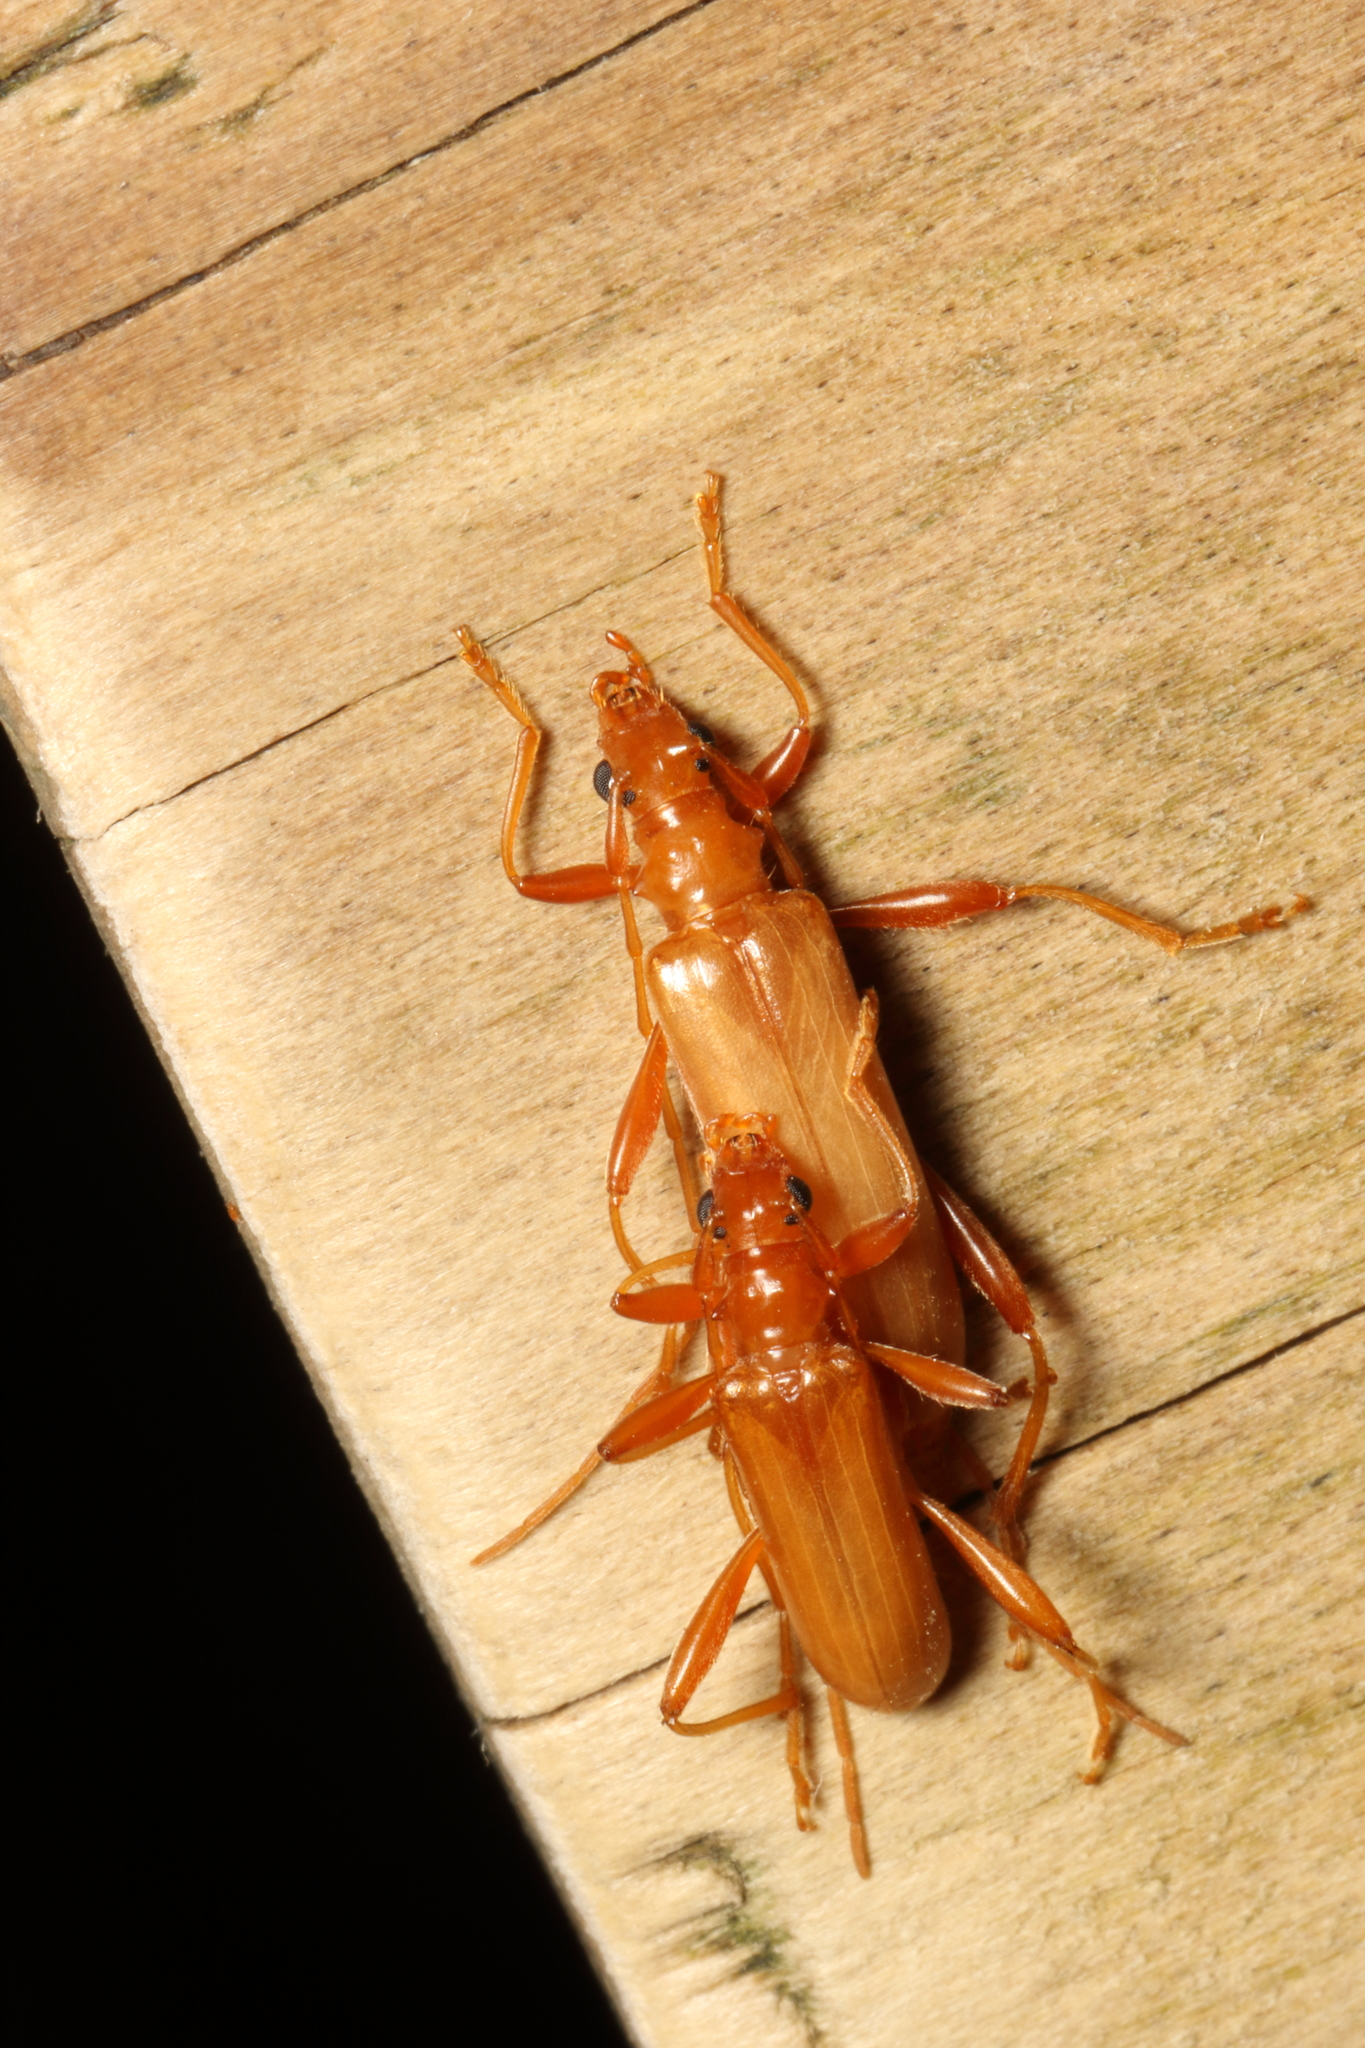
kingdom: Animalia
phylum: Arthropoda
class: Insecta
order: Coleoptera
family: Cerambycidae
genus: Votum
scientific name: Votum munda
